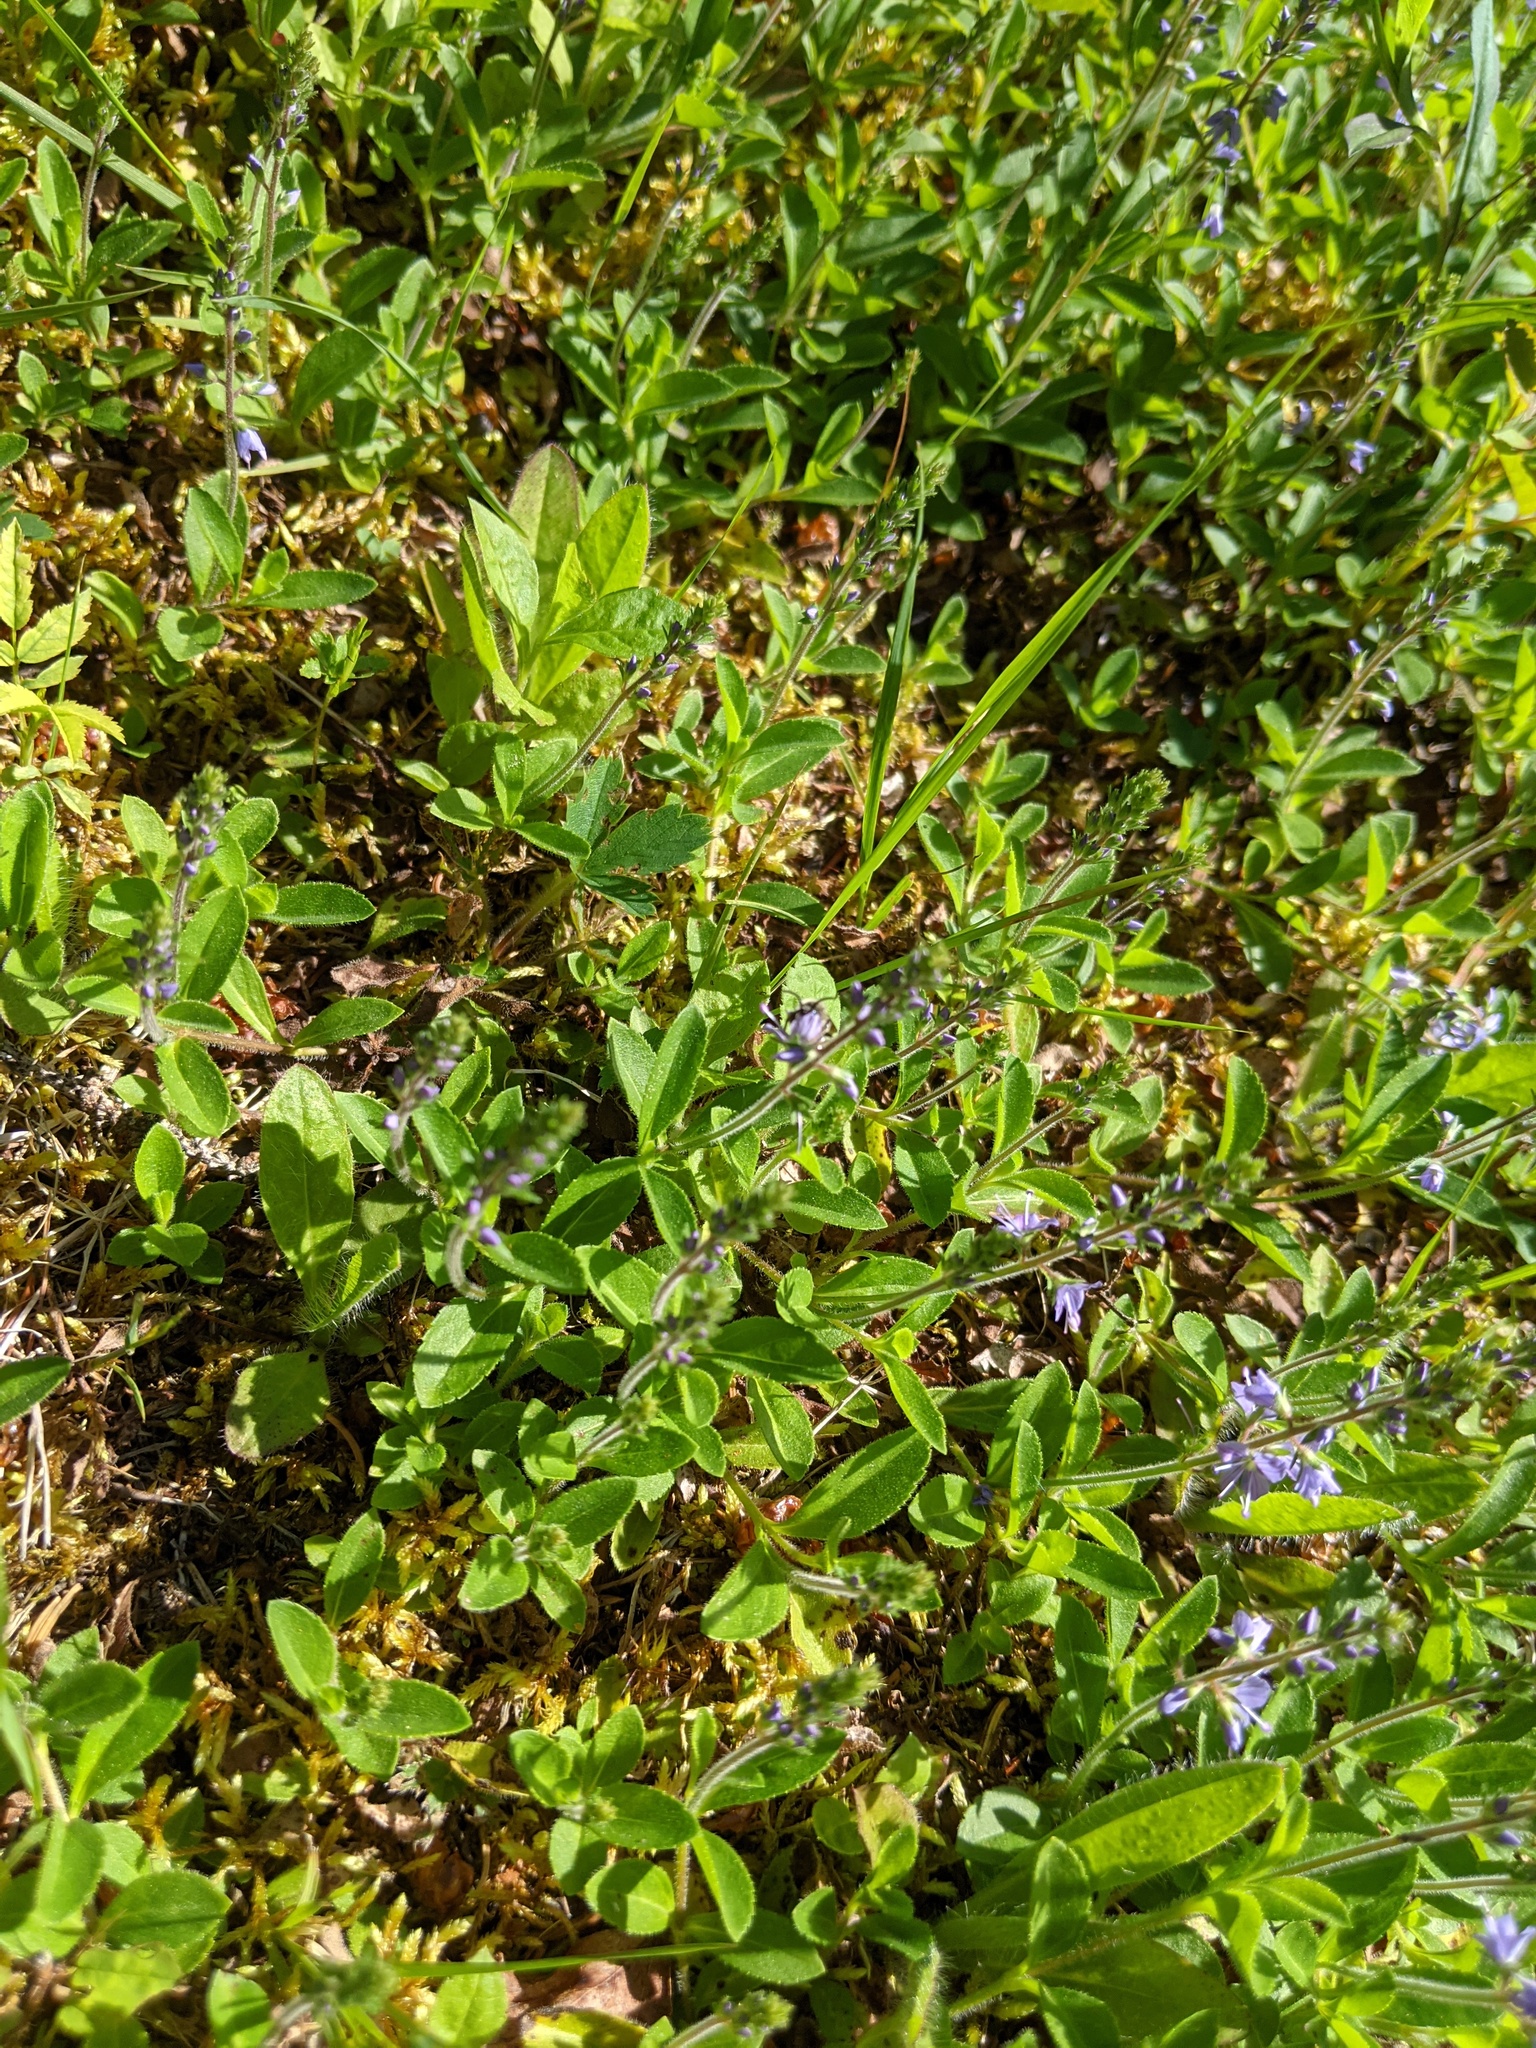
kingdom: Plantae
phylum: Tracheophyta
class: Magnoliopsida
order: Lamiales
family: Plantaginaceae
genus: Veronica
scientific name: Veronica officinalis
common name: Common speedwell
